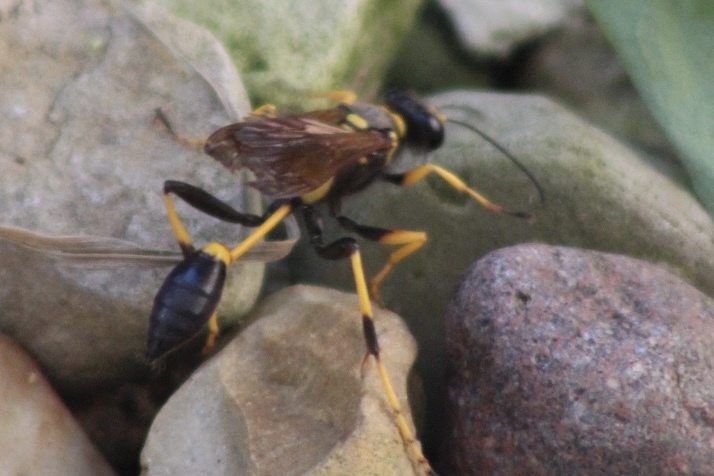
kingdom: Animalia
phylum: Arthropoda
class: Insecta
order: Hymenoptera
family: Sphecidae
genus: Sceliphron
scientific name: Sceliphron caementarium
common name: Mud dauber
